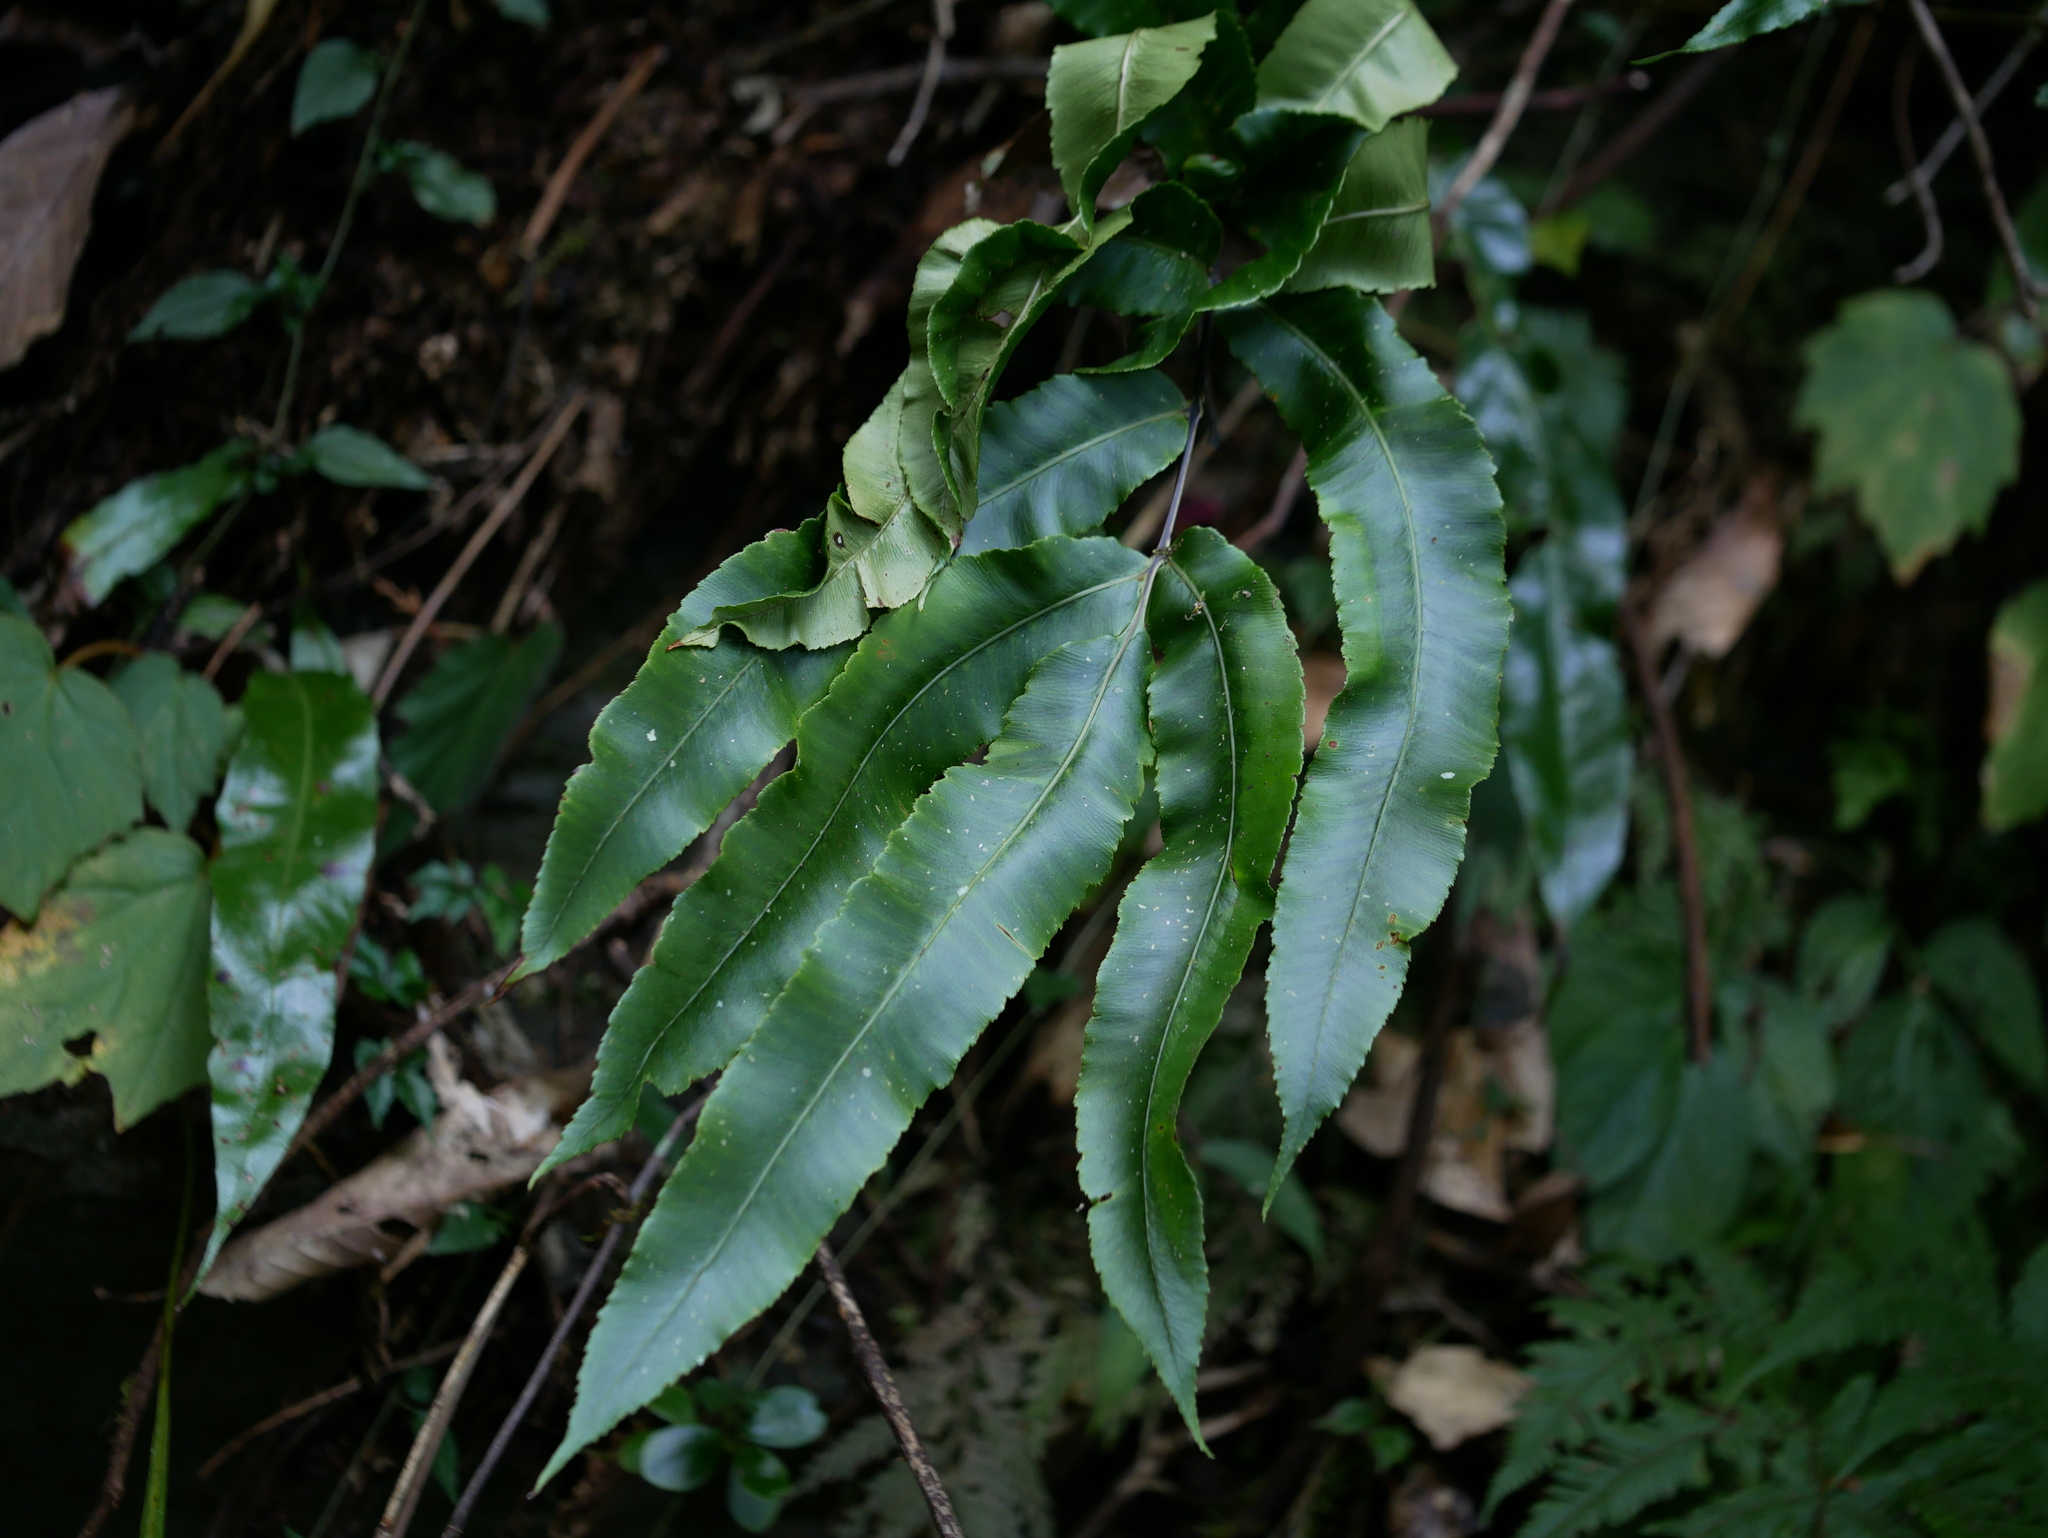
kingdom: Plantae
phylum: Tracheophyta
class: Polypodiopsida
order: Polypodiales
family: Dryopteridaceae
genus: Dryopteris
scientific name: Dryopteris pseudosieboldii
